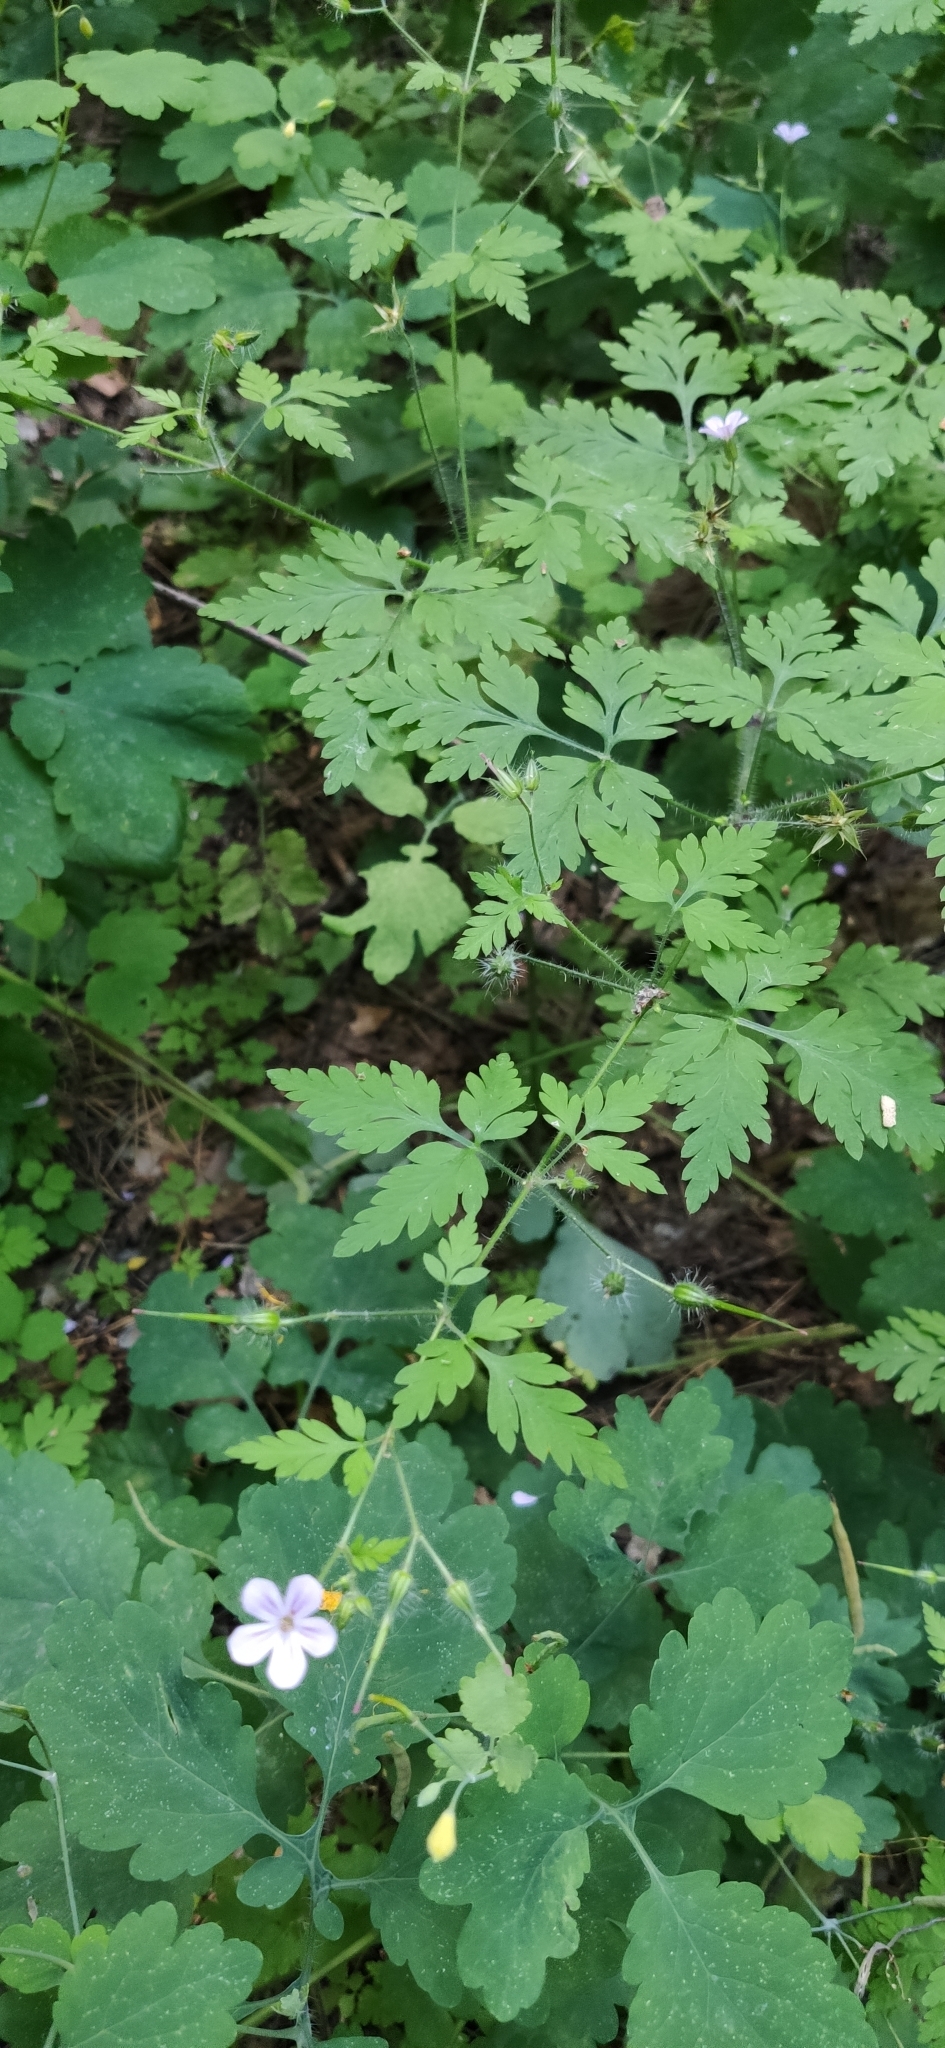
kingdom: Plantae
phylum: Tracheophyta
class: Magnoliopsida
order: Geraniales
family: Geraniaceae
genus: Geranium
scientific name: Geranium robertianum
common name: Herb-robert
